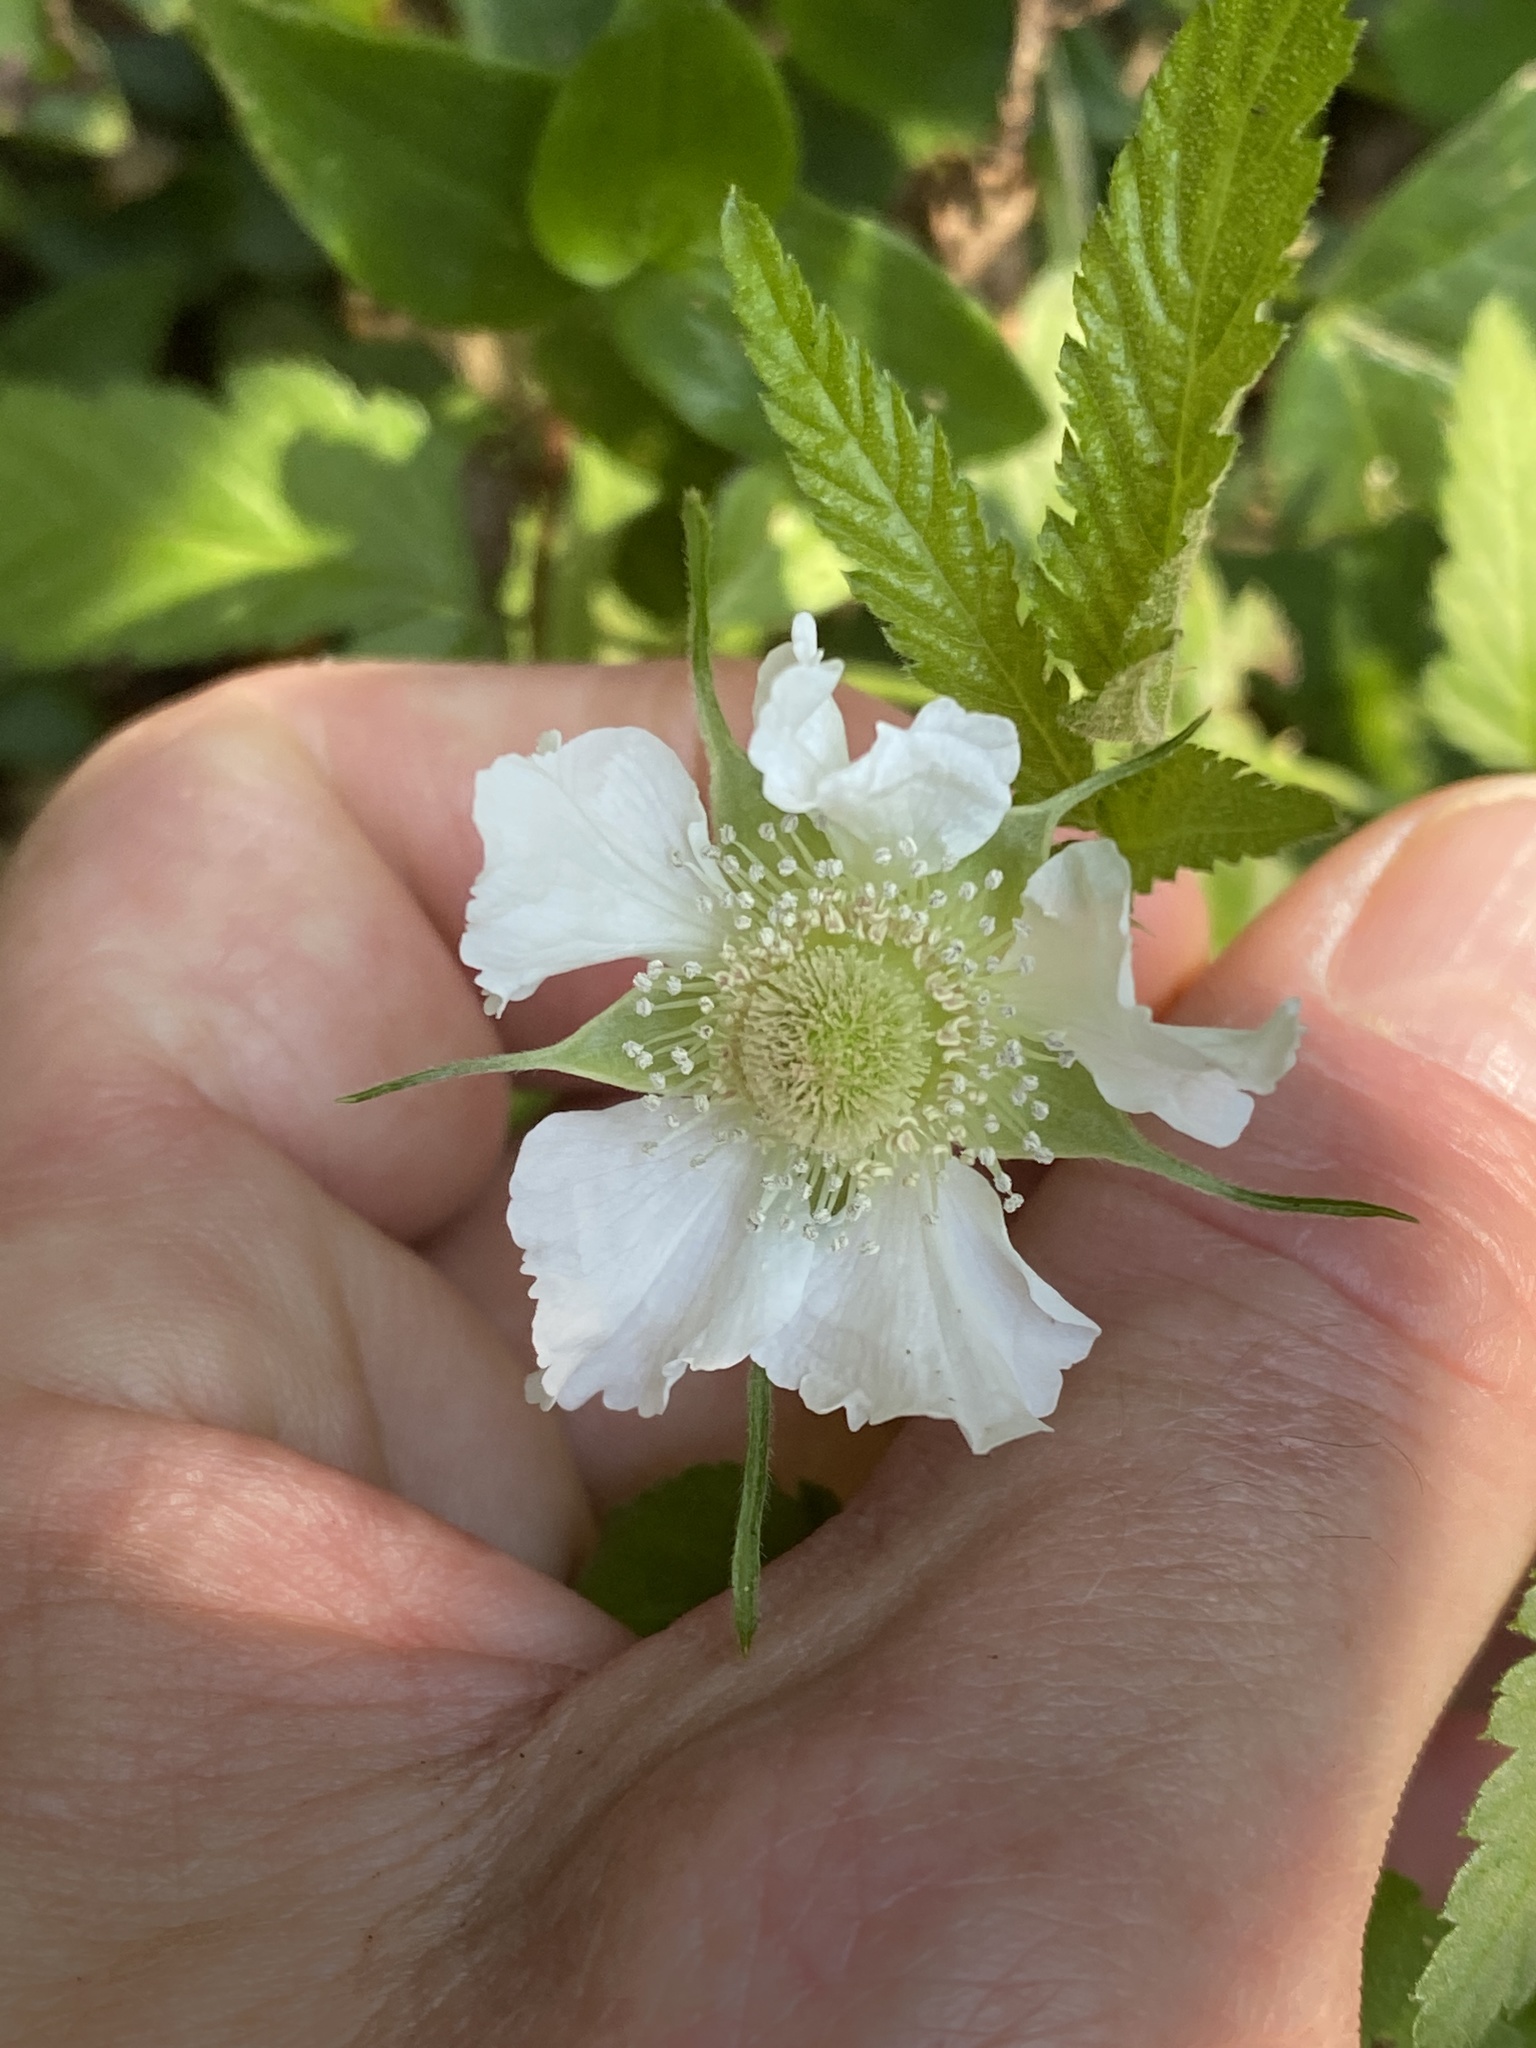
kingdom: Plantae
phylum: Tracheophyta
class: Magnoliopsida
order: Rosales
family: Rosaceae
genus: Rubus
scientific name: Rubus rosifolius
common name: Roseleaf raspberry
